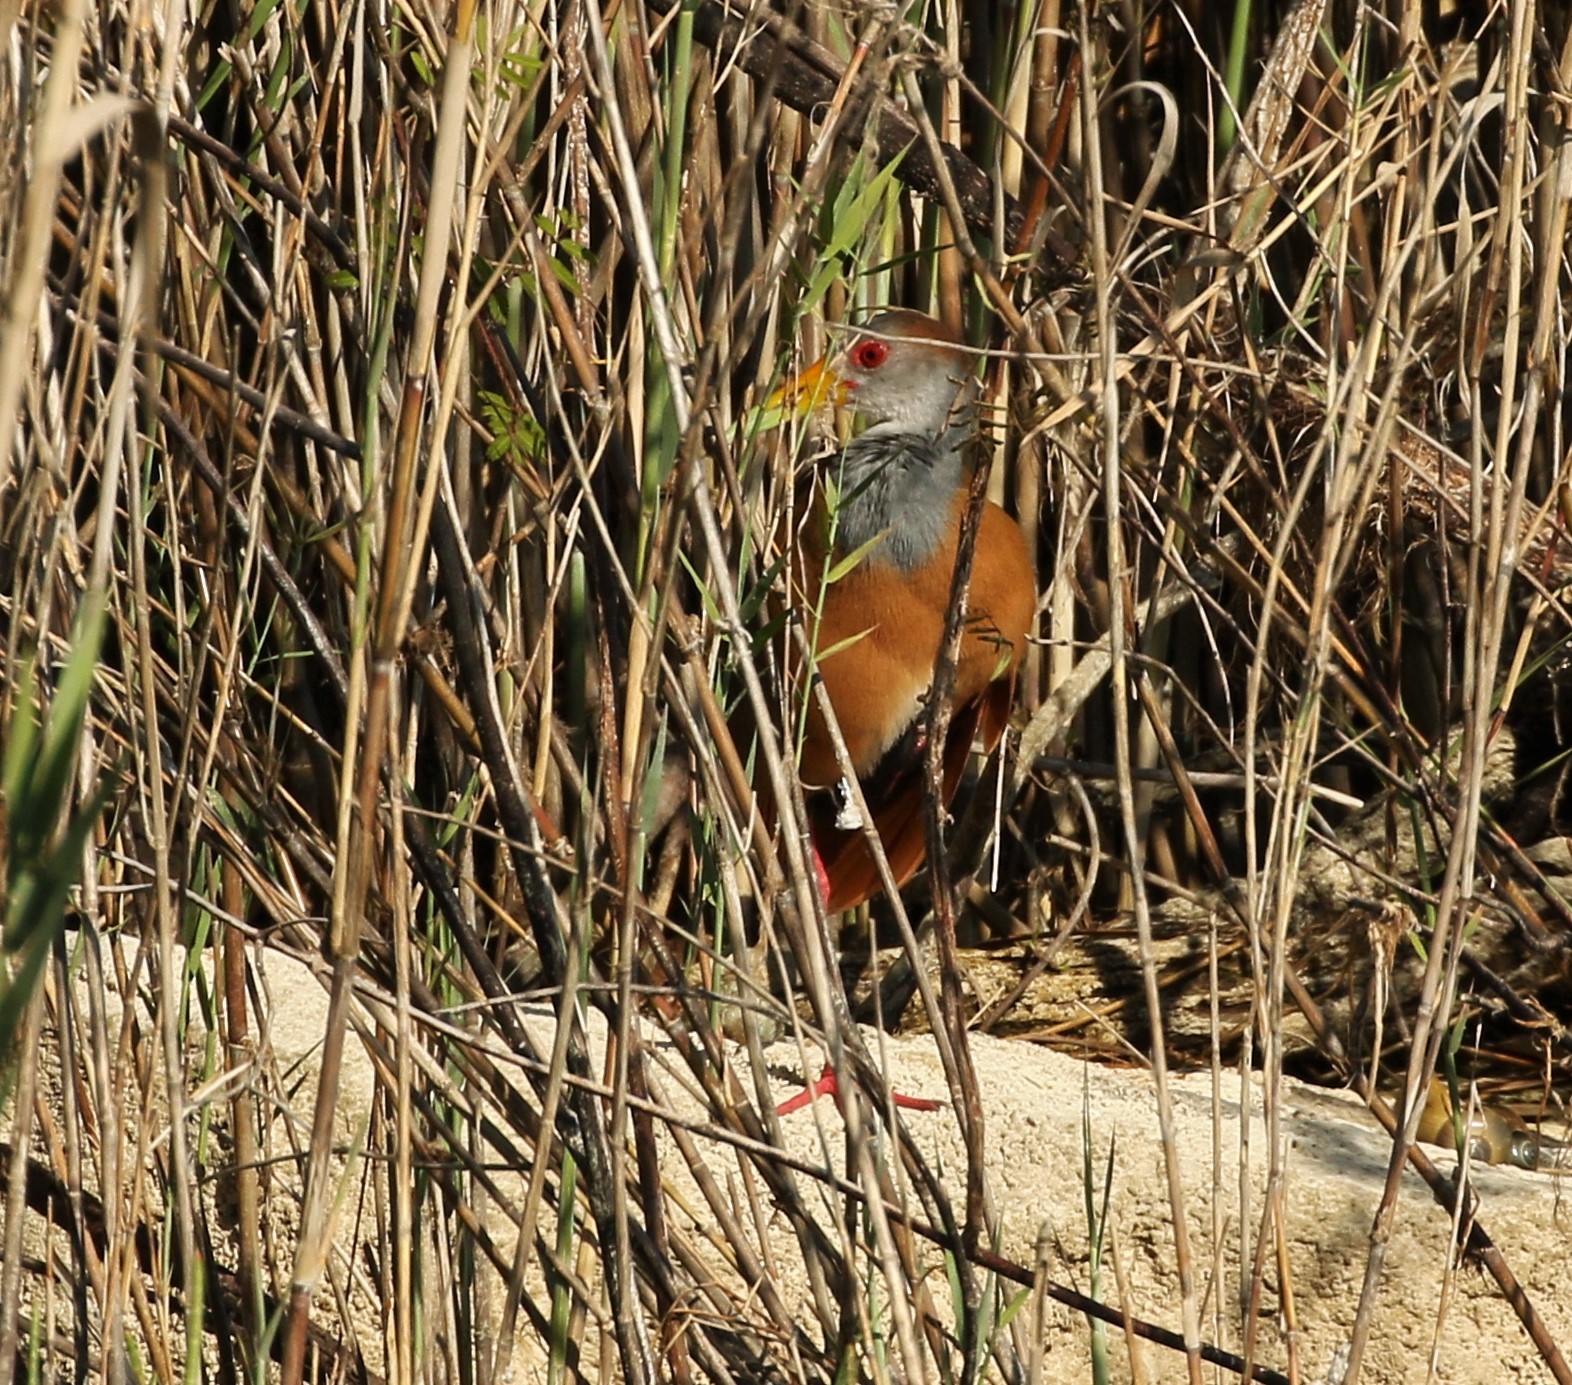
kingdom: Animalia
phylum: Chordata
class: Aves
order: Gruiformes
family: Rallidae
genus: Aramides
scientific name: Aramides albiventris
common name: Russet-naped wood-rail
